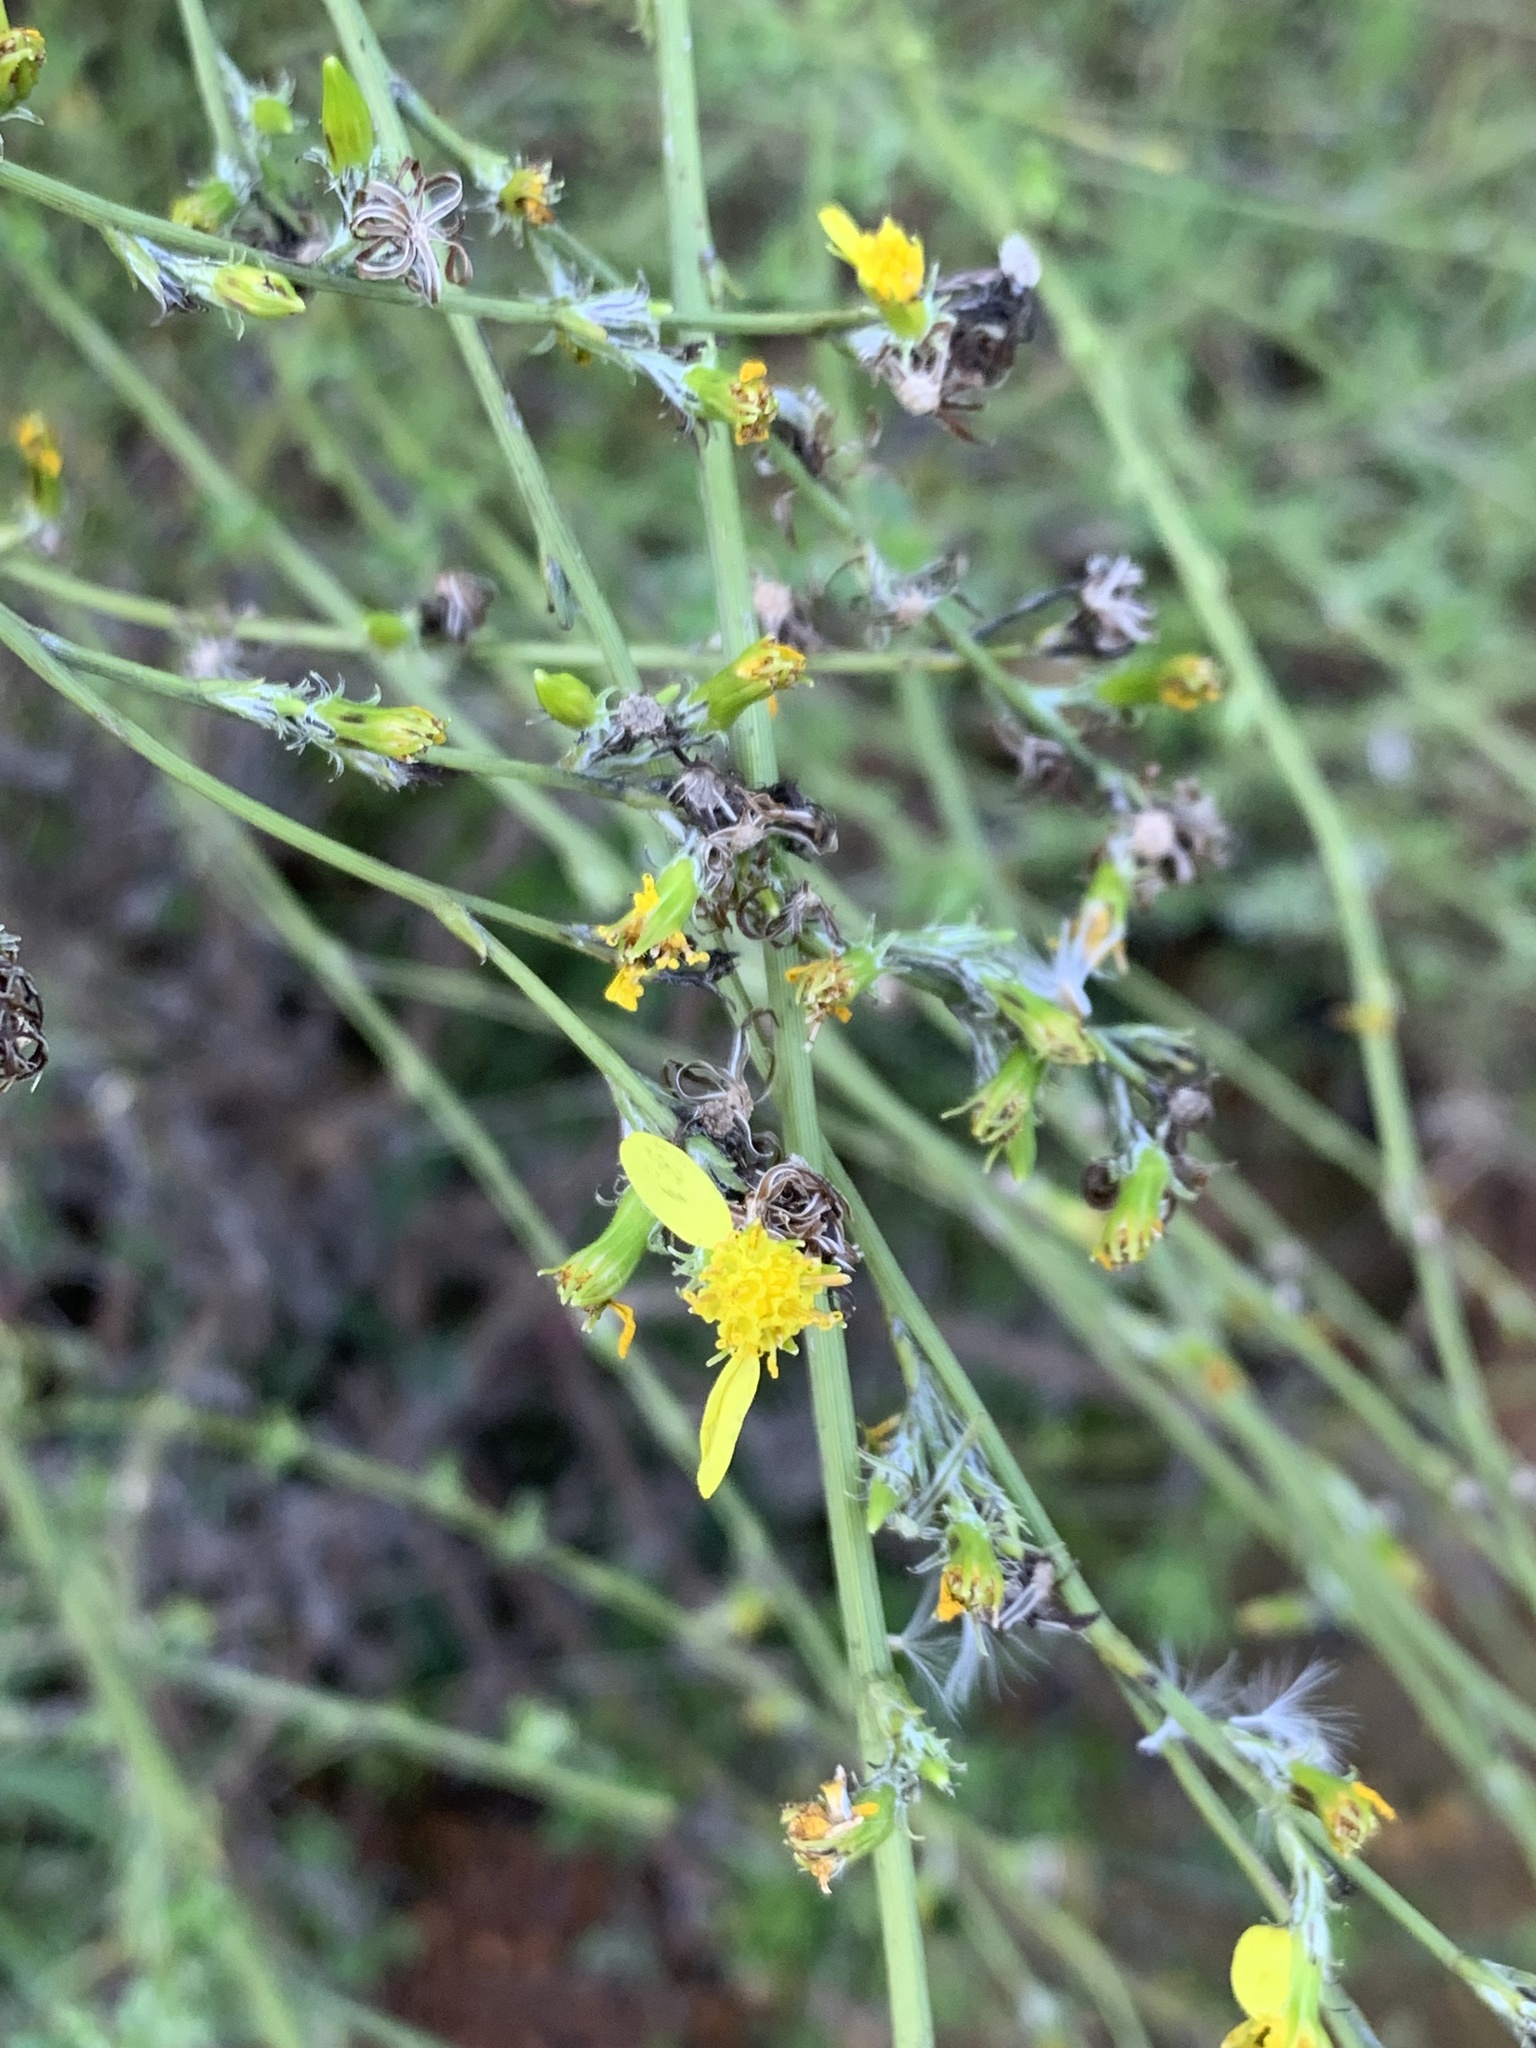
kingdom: Plantae
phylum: Tracheophyta
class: Magnoliopsida
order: Asterales
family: Asteraceae
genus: Senecio
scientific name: Senecio pubigerus
